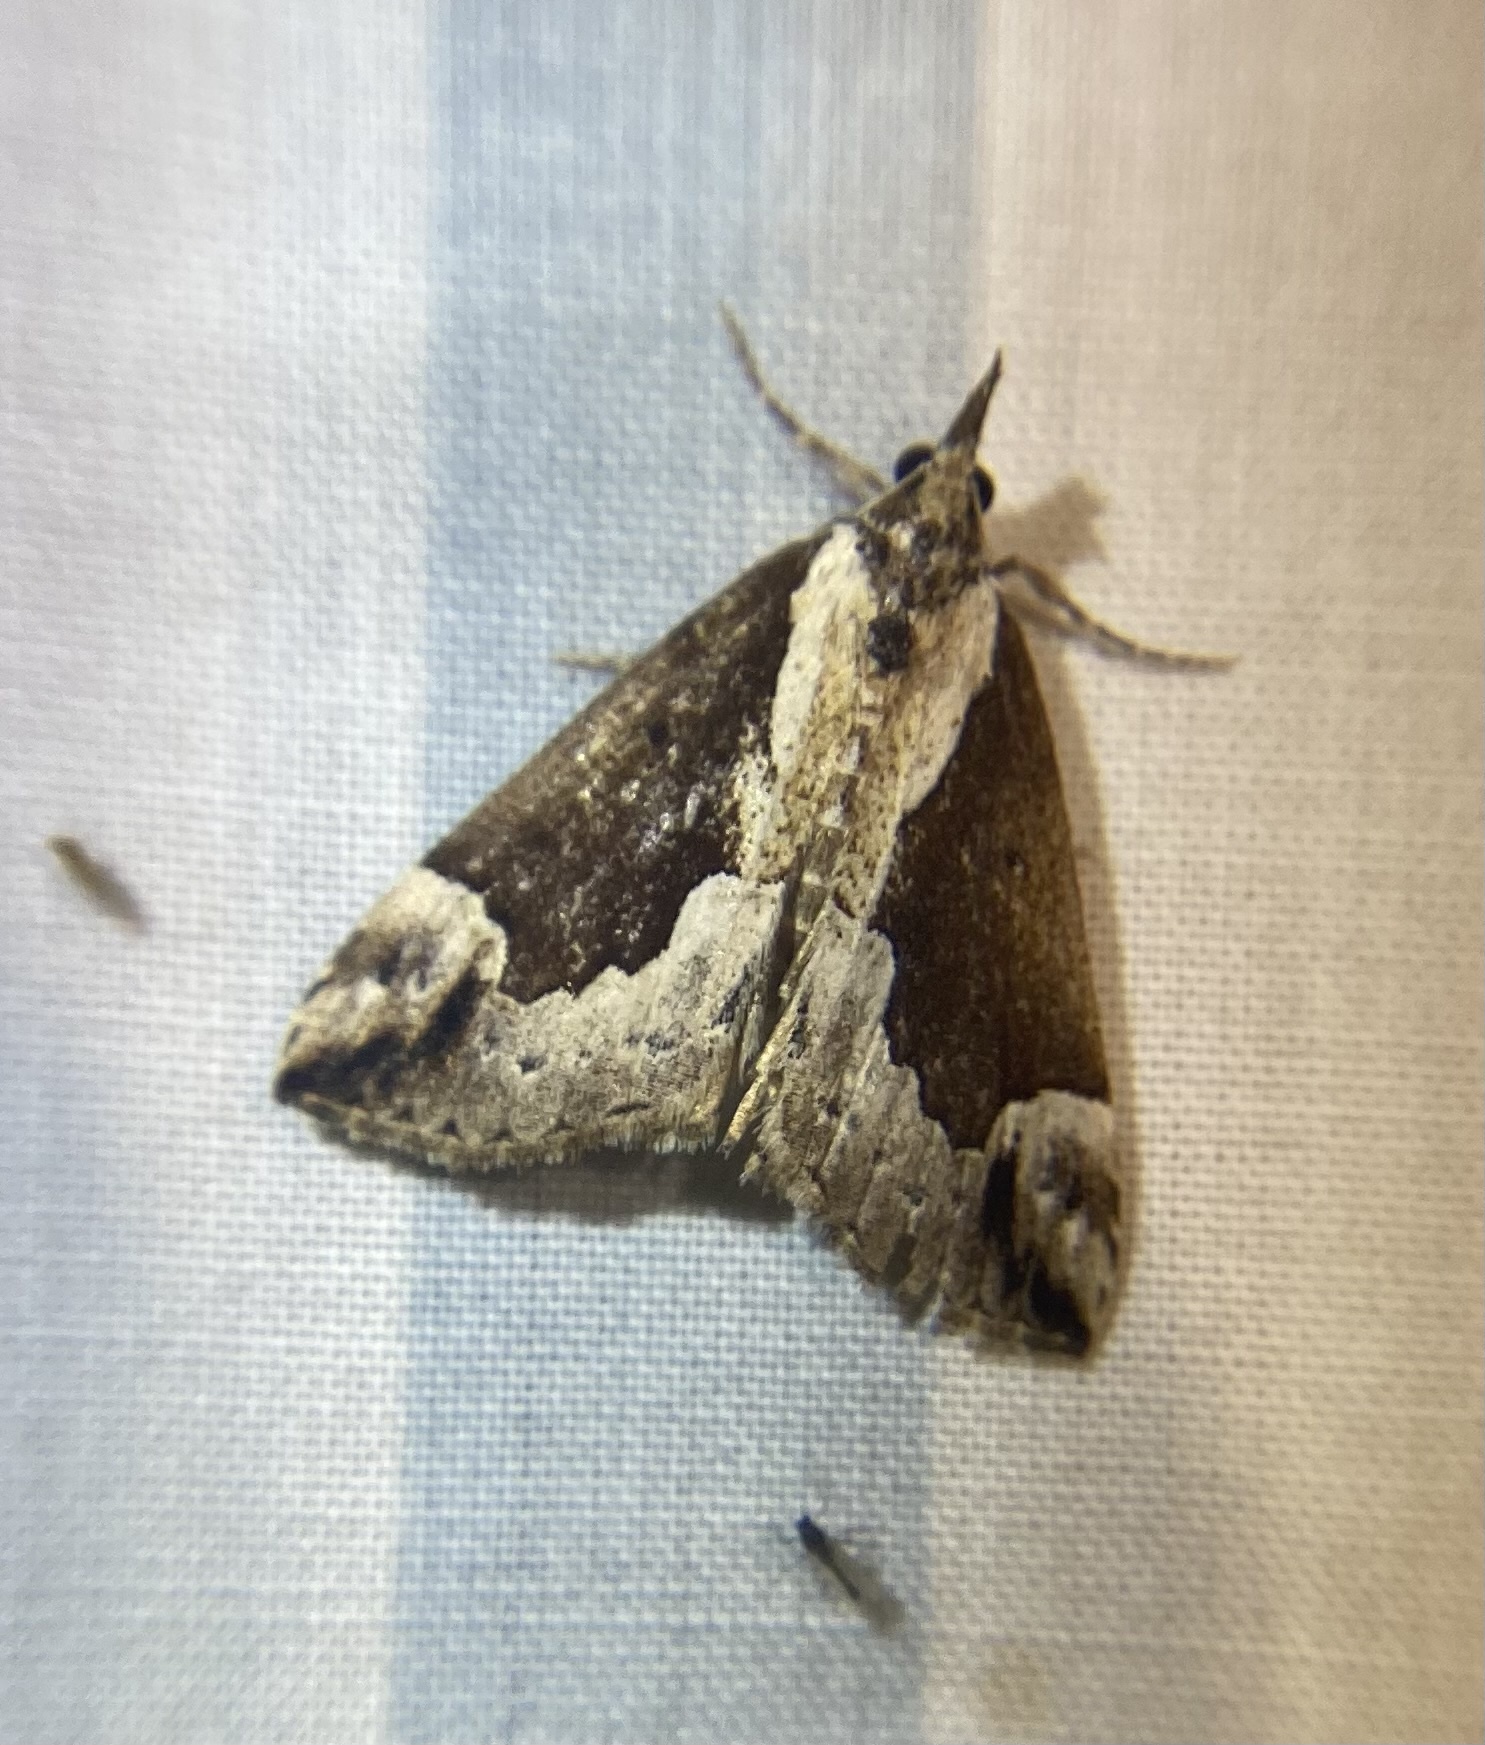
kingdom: Animalia
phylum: Arthropoda
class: Insecta
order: Lepidoptera
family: Erebidae
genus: Hypena
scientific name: Hypena baltimoralis
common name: Baltimore snout
